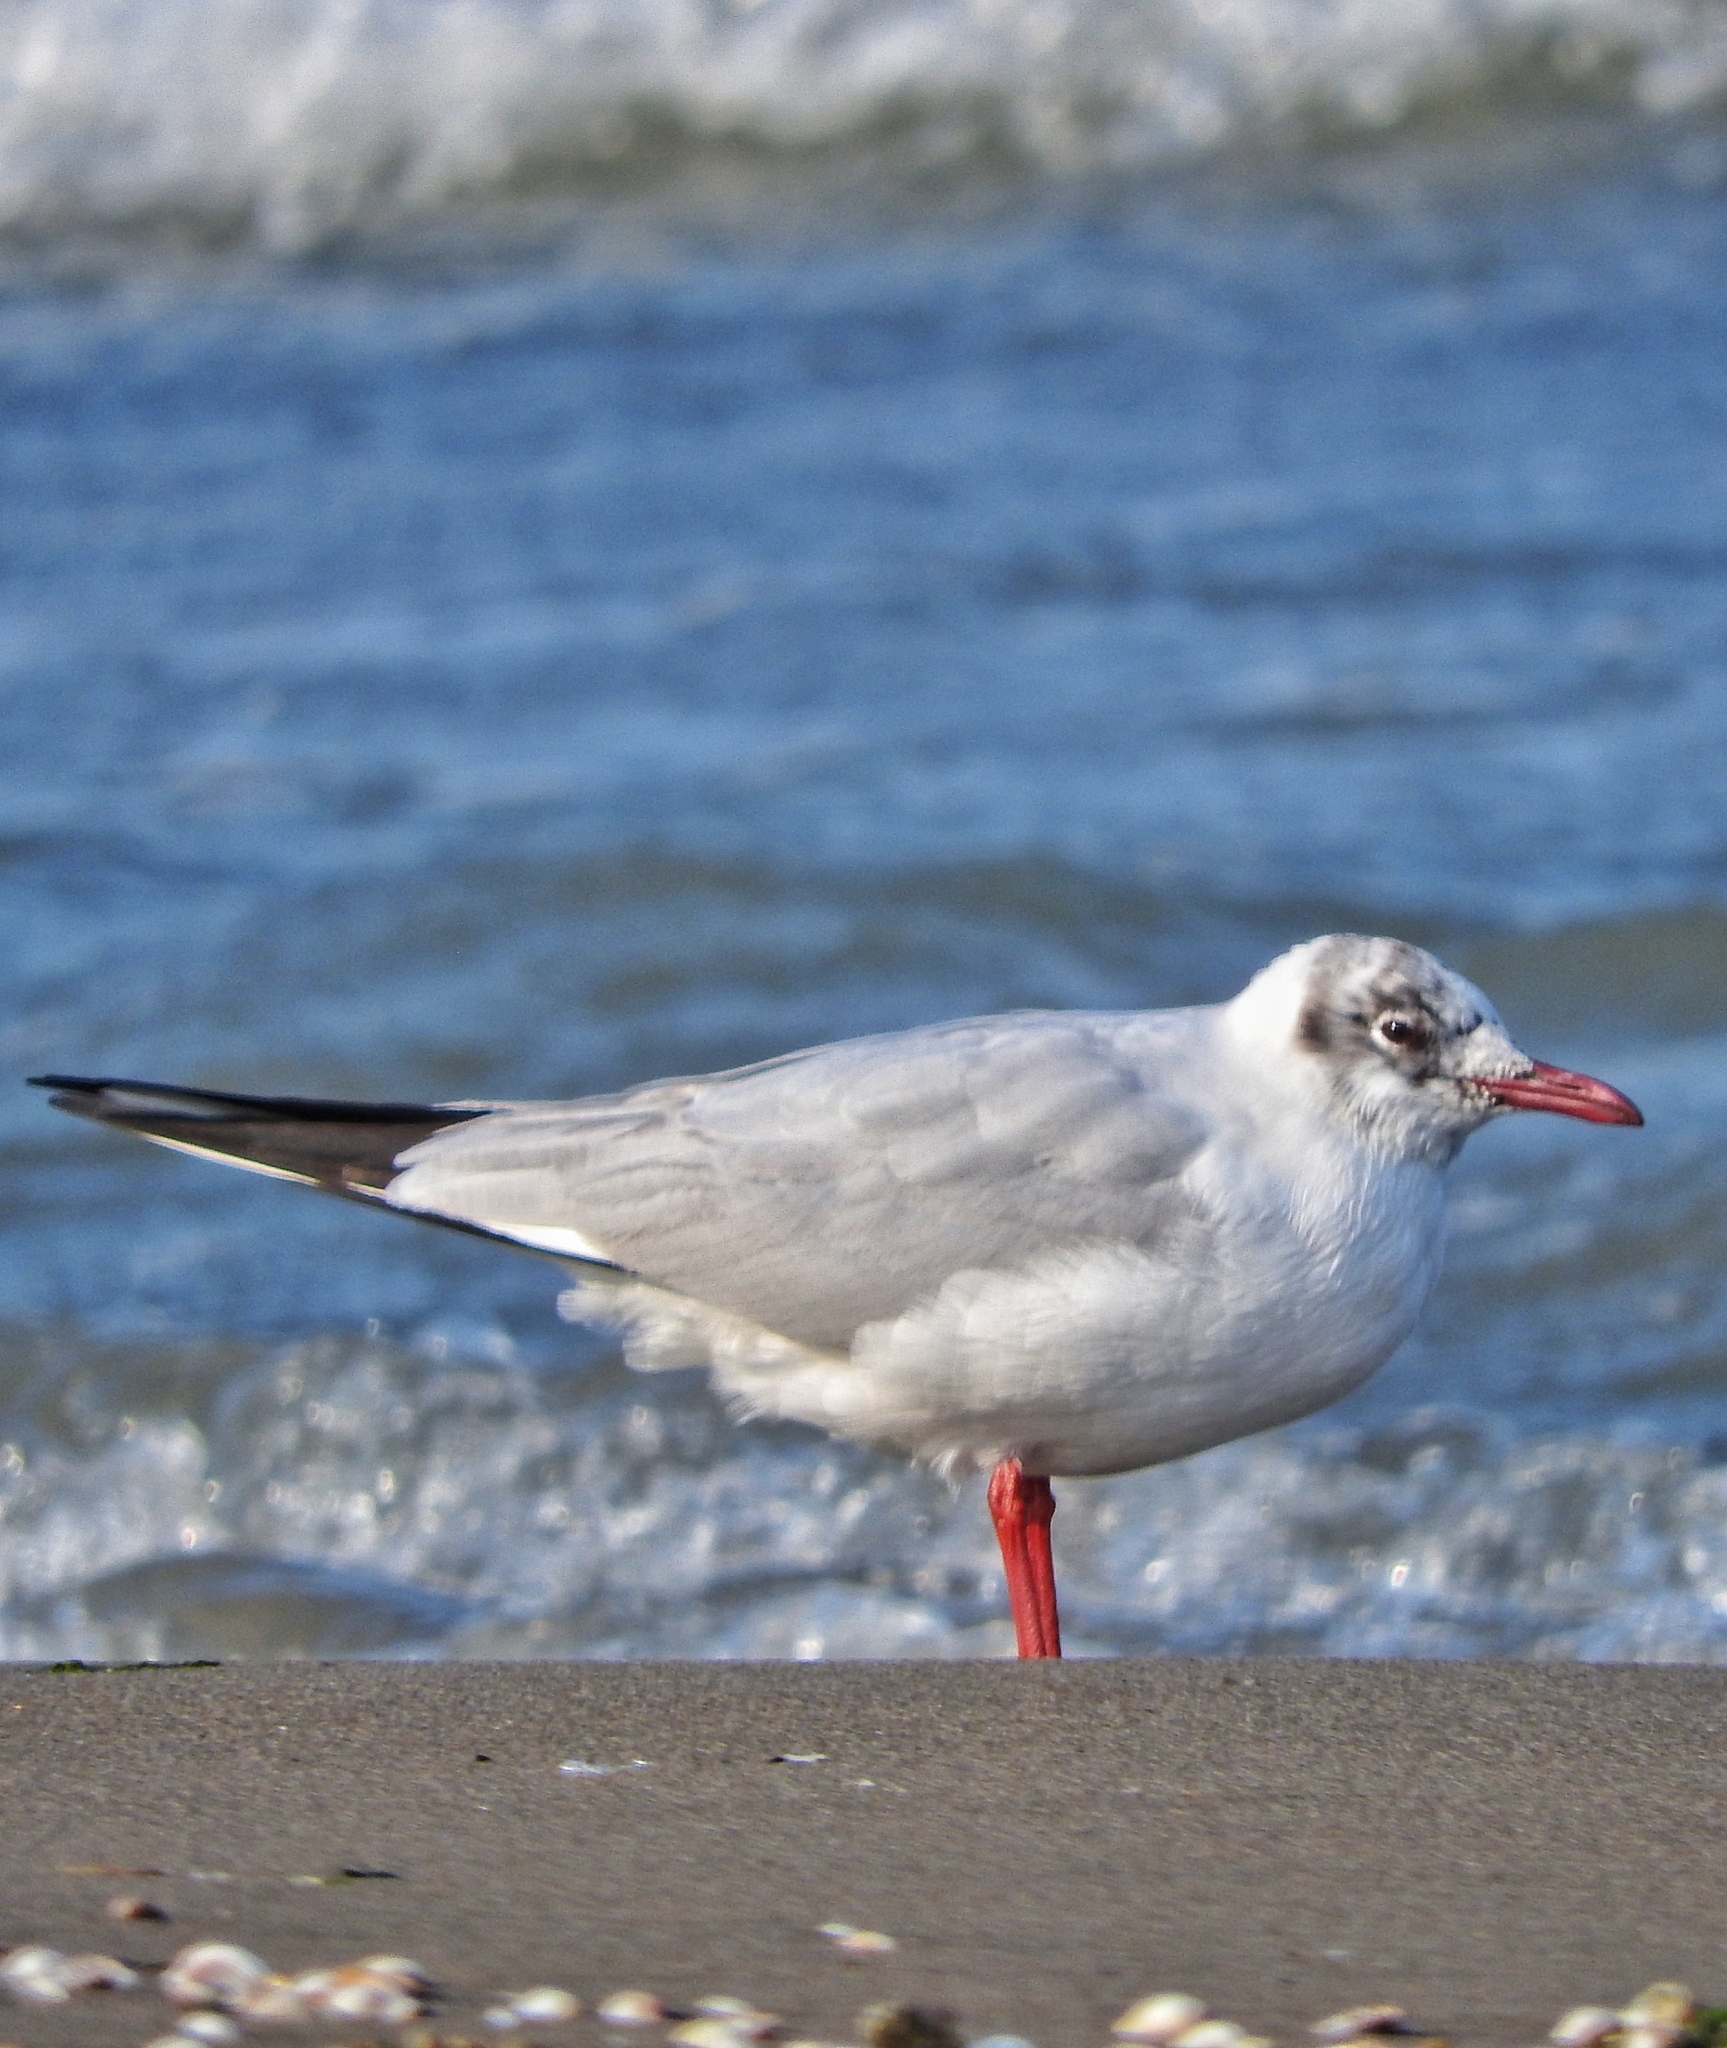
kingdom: Animalia
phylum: Chordata
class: Aves
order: Charadriiformes
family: Laridae
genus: Chroicocephalus
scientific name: Chroicocephalus ridibundus
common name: Black-headed gull
